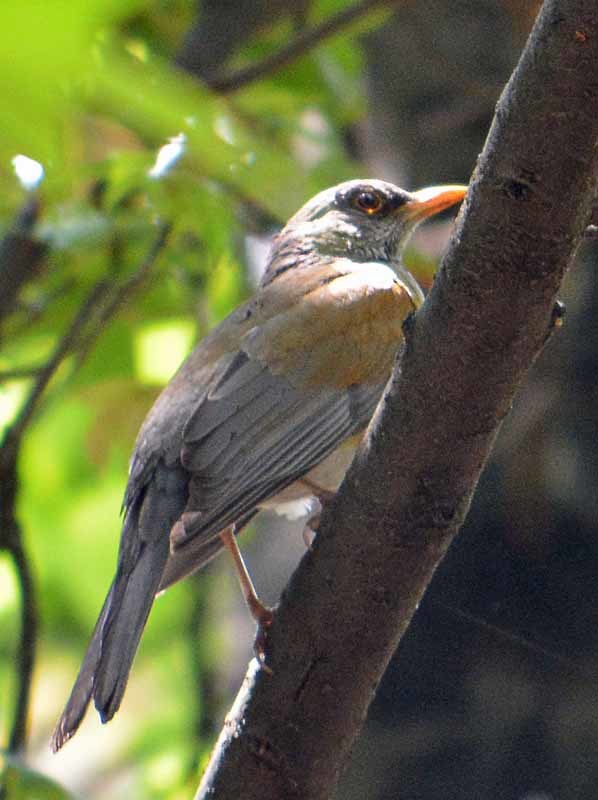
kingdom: Animalia
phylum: Chordata
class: Aves
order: Passeriformes
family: Turdidae
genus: Turdus
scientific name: Turdus rufopalliatus
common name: Rufous-backed robin
